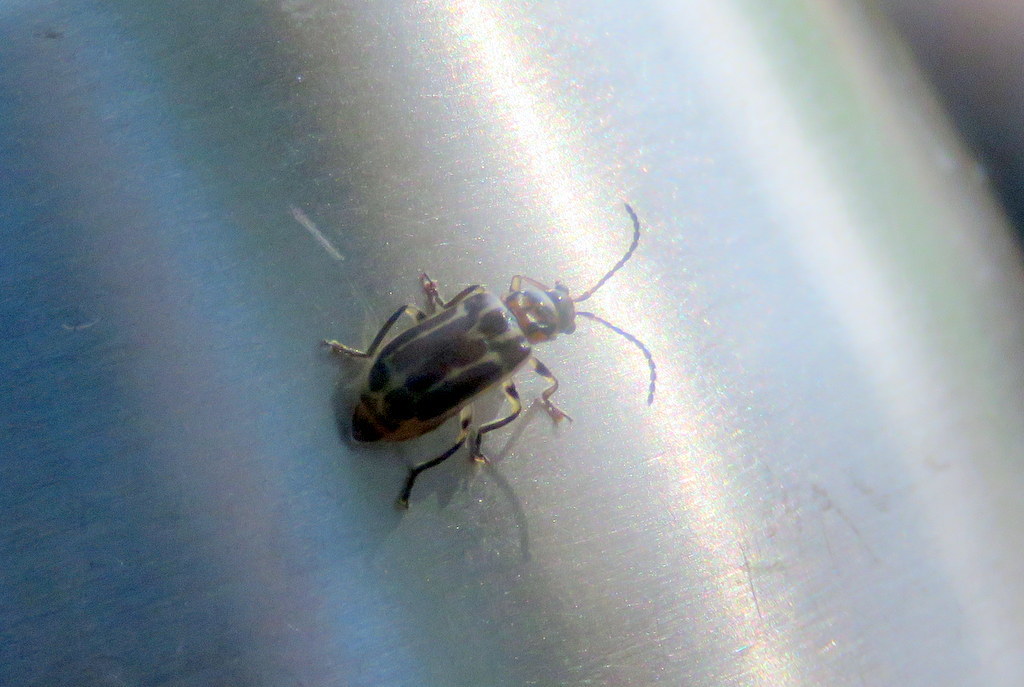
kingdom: Animalia
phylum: Arthropoda
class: Insecta
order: Coleoptera
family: Chrysomelidae
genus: Anisobrotica
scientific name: Anisobrotica
